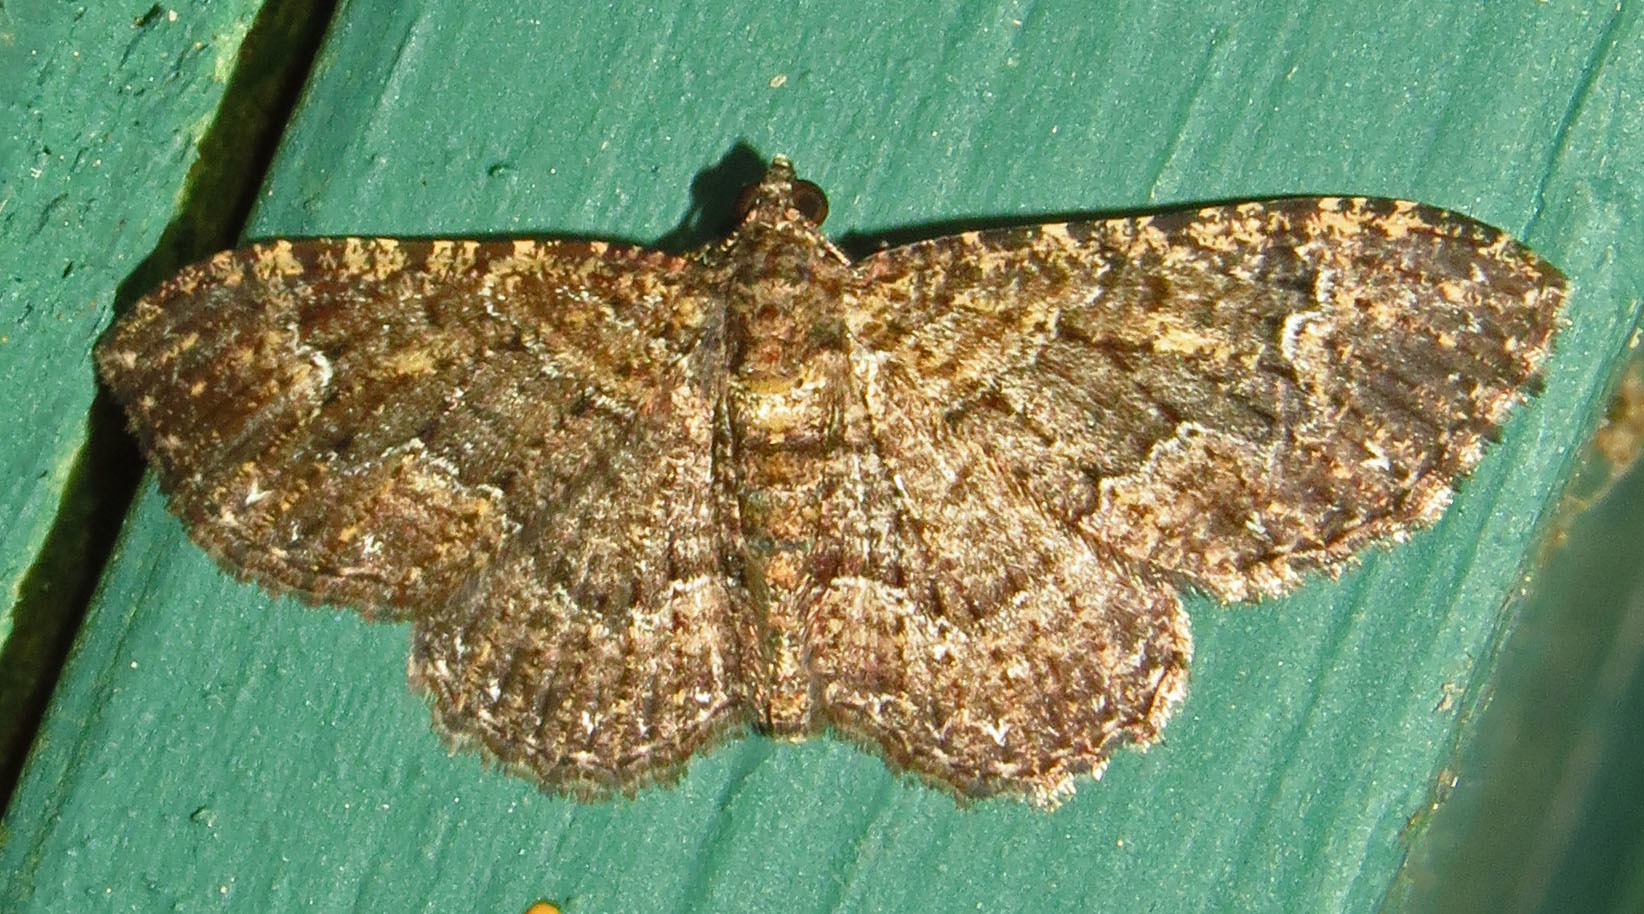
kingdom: Animalia
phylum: Arthropoda
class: Insecta
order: Lepidoptera
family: Geometridae
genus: Disclisioprocta
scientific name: Disclisioprocta stellata
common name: Somber carpet
